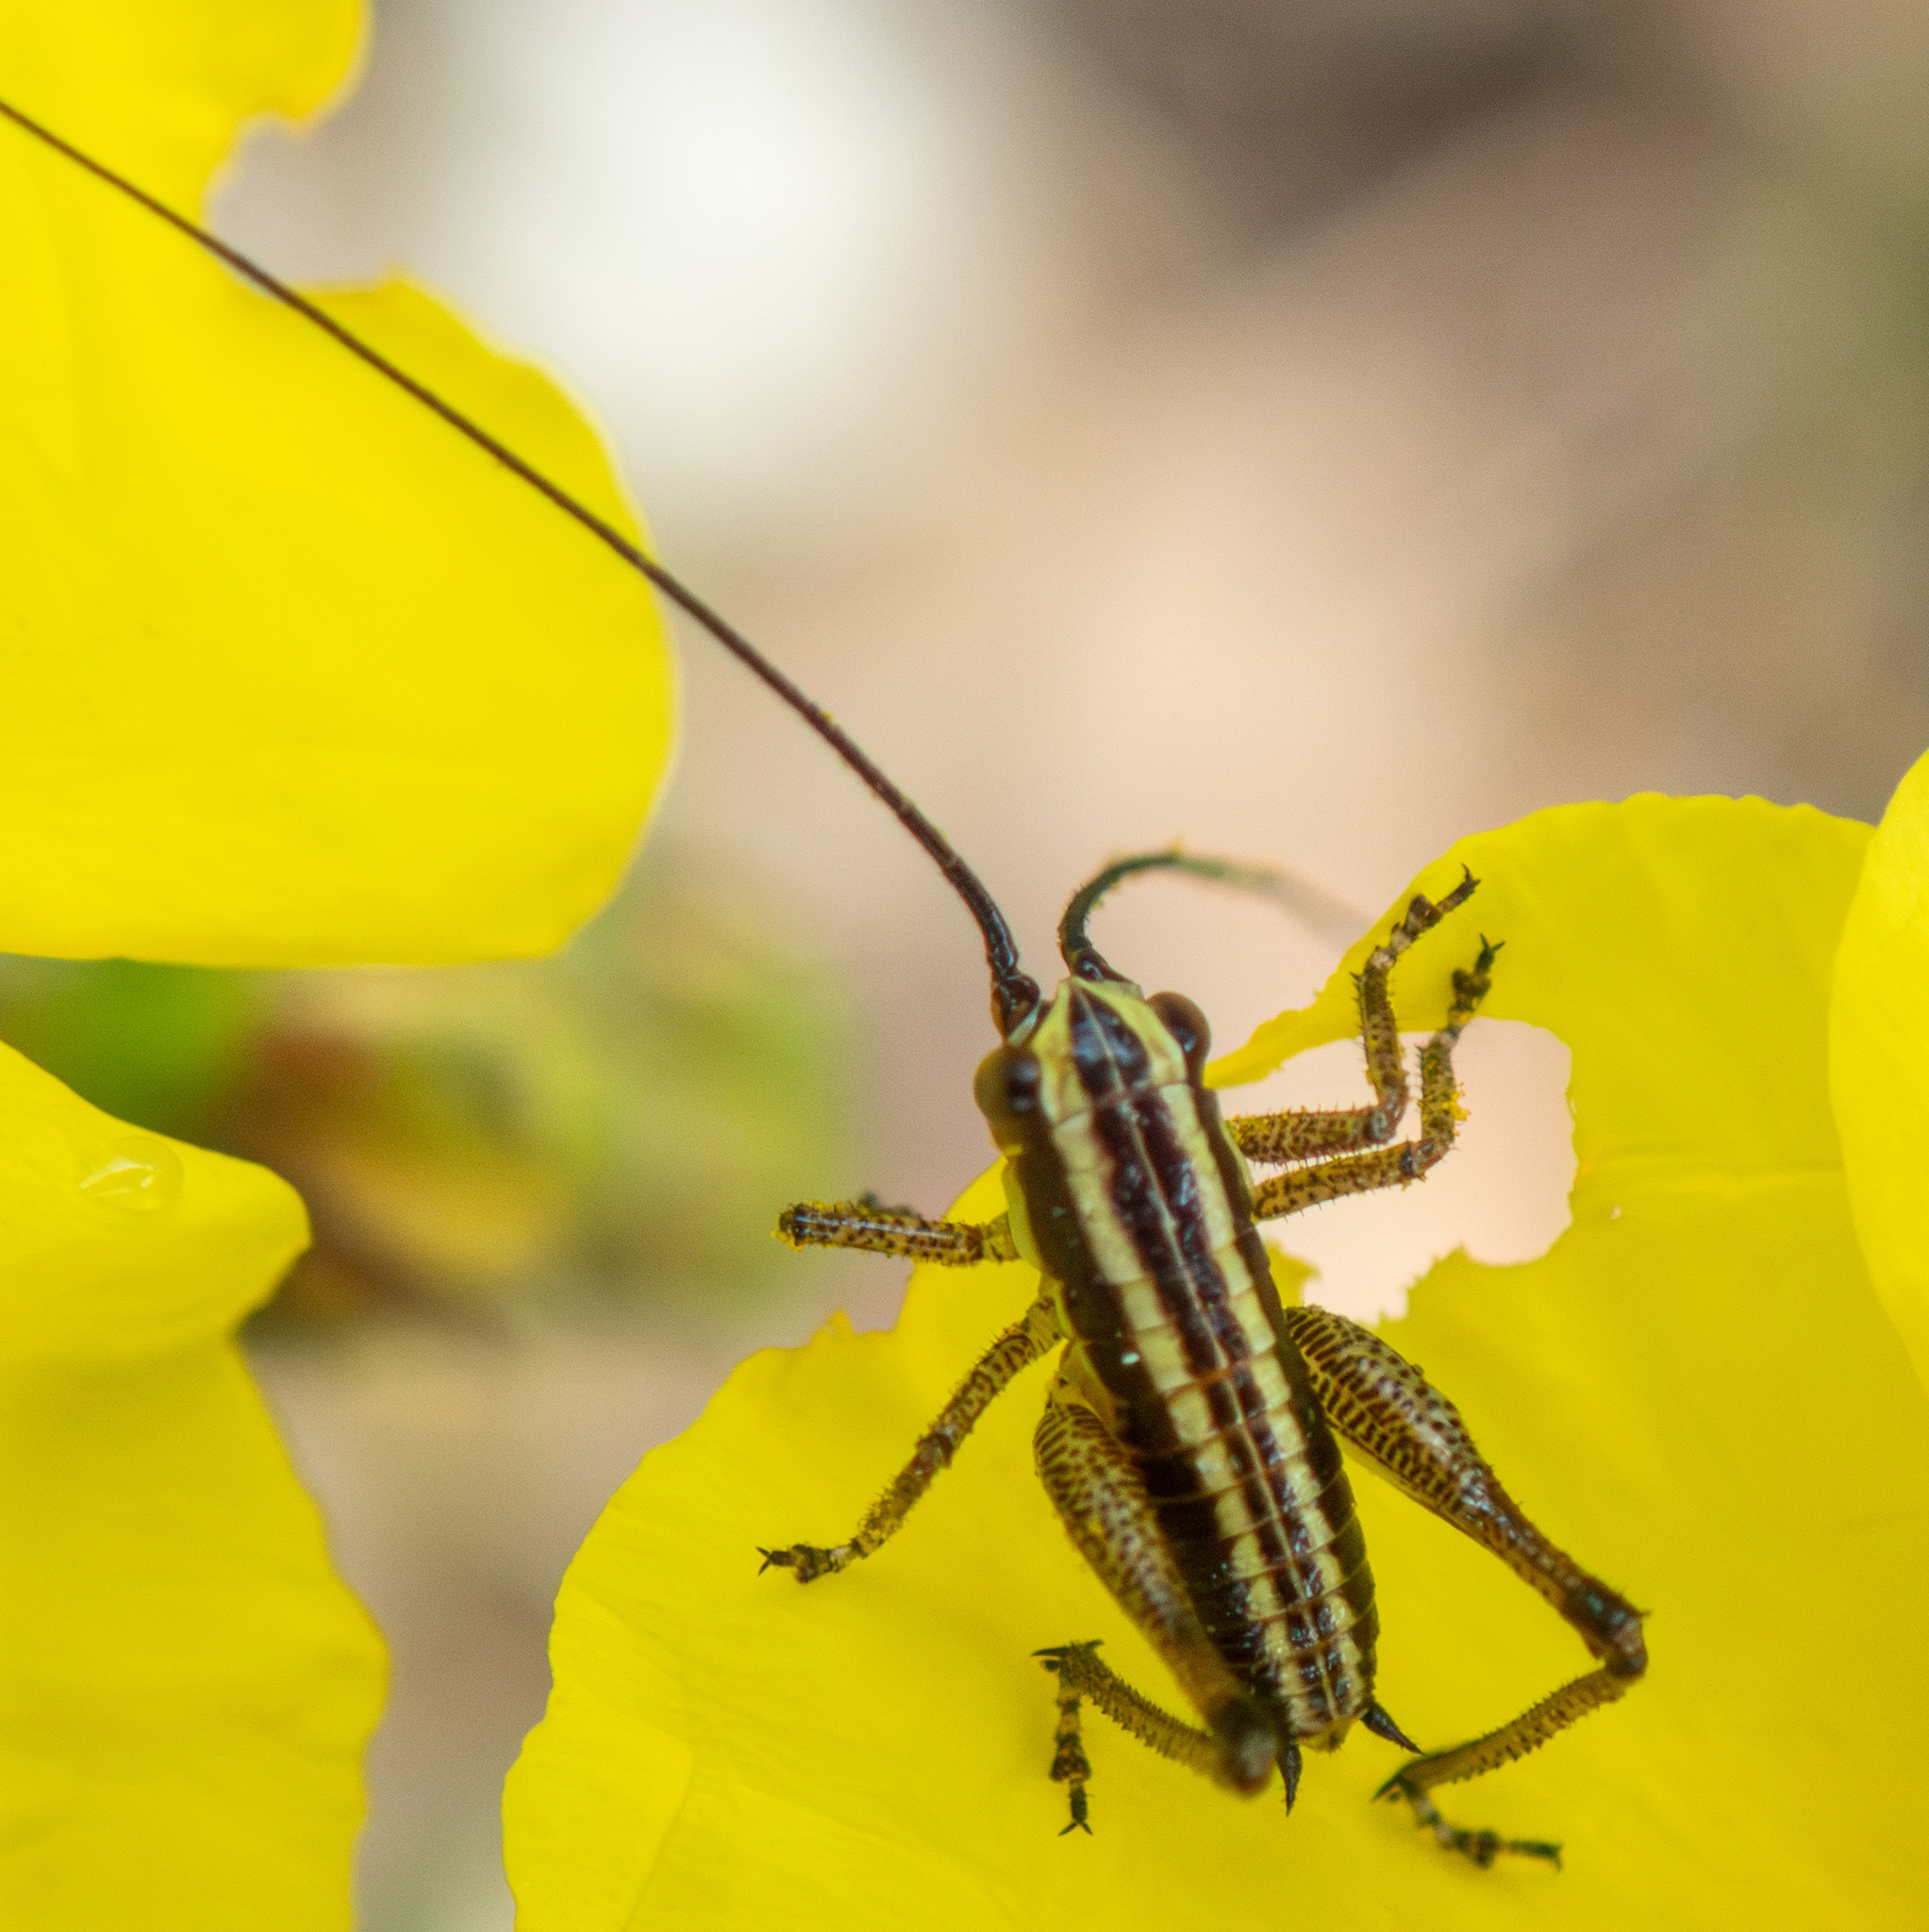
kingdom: Animalia
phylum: Arthropoda
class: Insecta
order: Orthoptera
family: Tettigoniidae
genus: Pachytrachis
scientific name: Pachytrachis striolatus
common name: Striated bush-cricket
